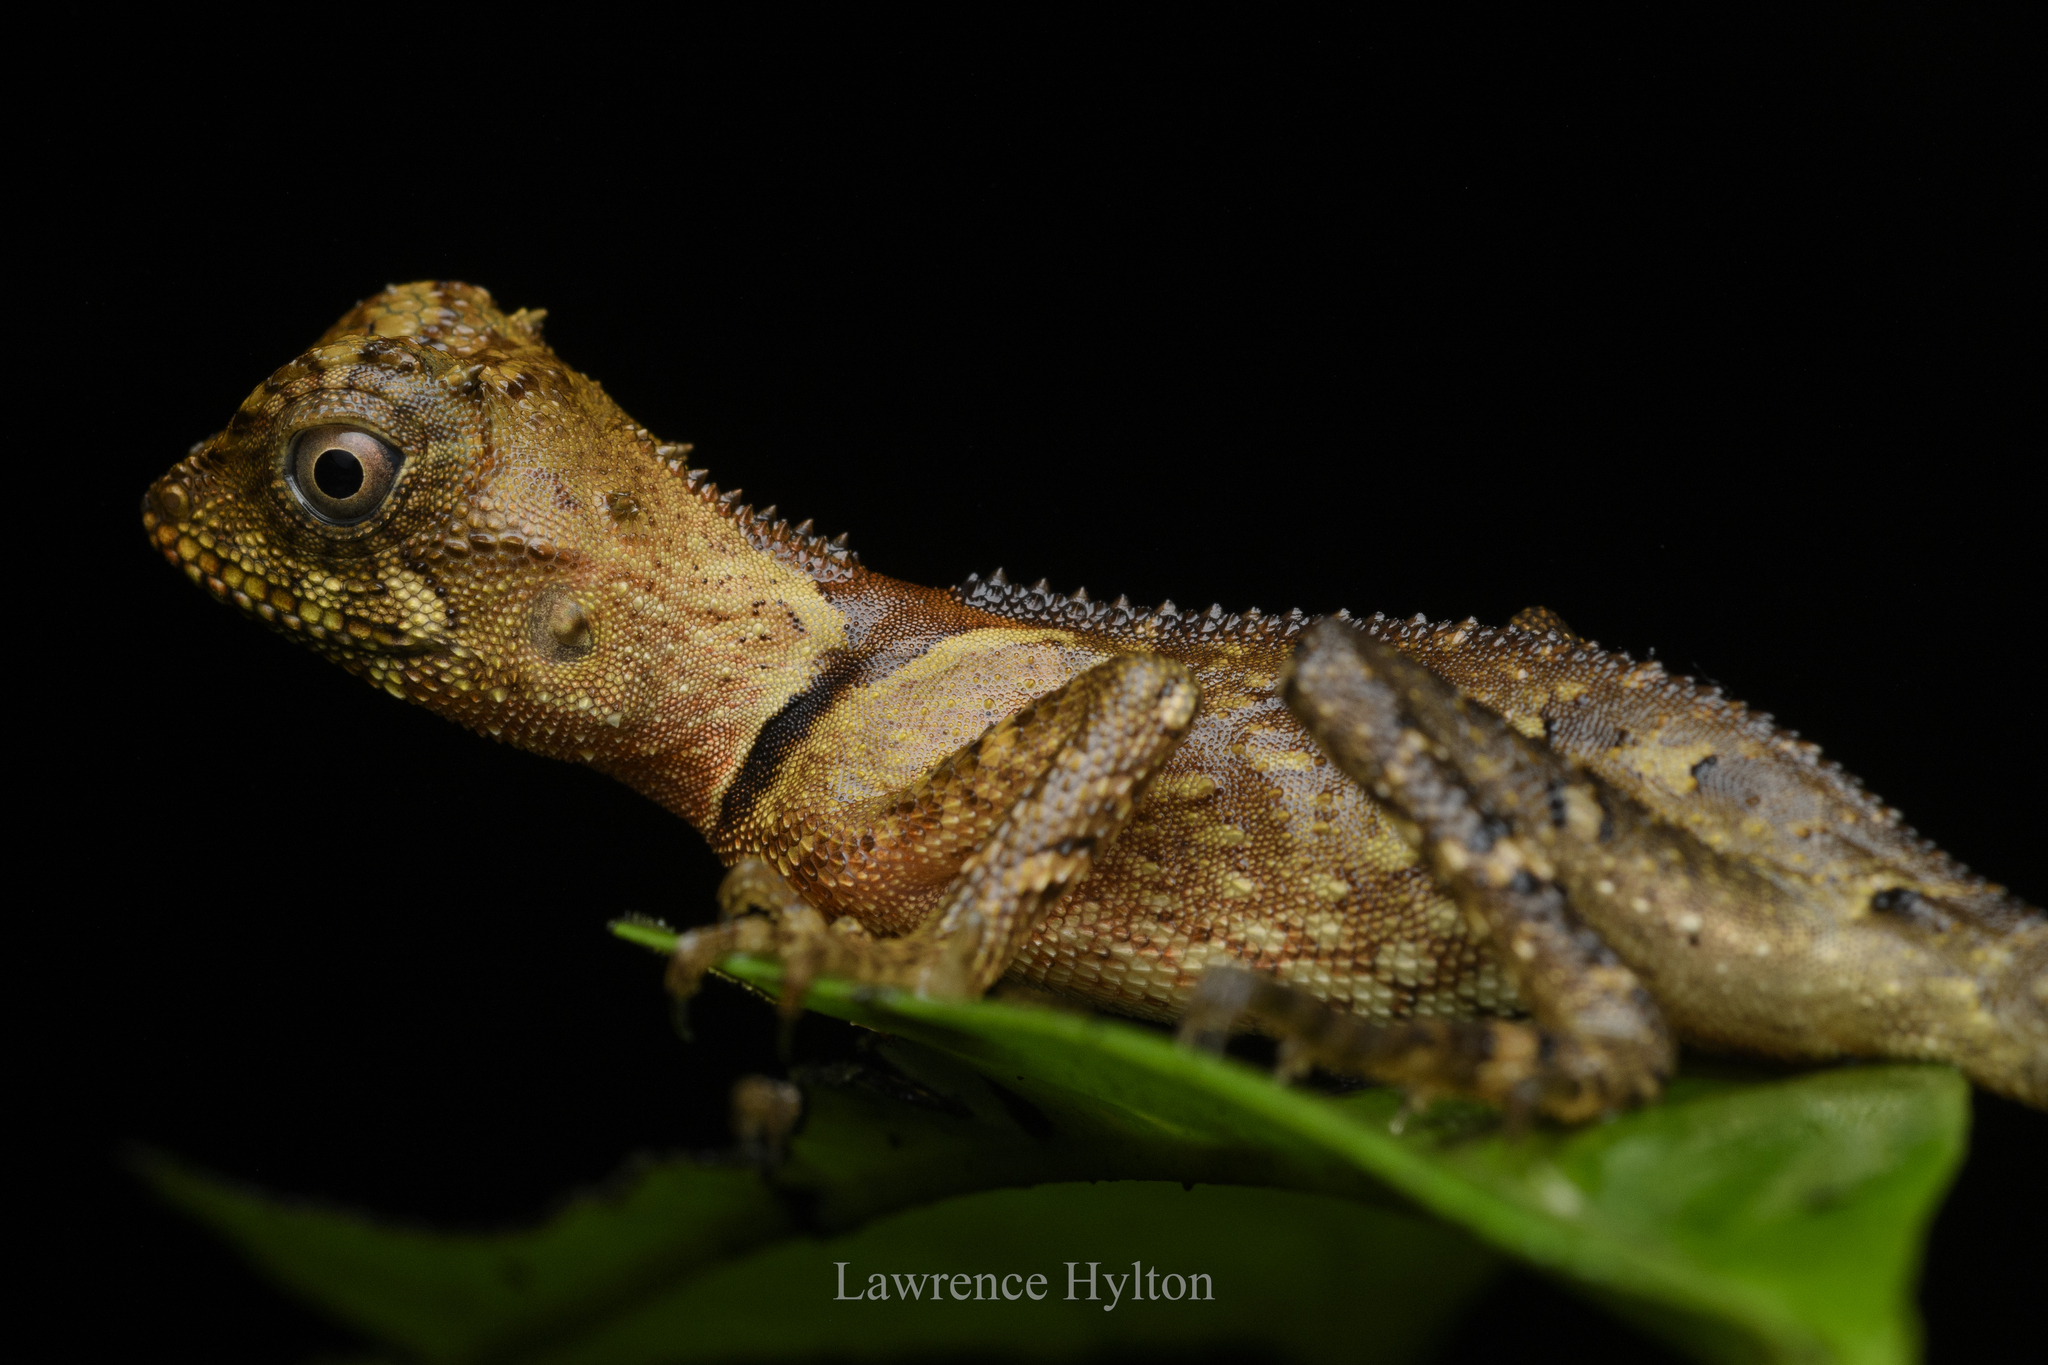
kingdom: Animalia
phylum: Chordata
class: Squamata
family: Agamidae
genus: Acanthosaura
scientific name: Acanthosaura phuketensis
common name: Phuket horned tree agamid
